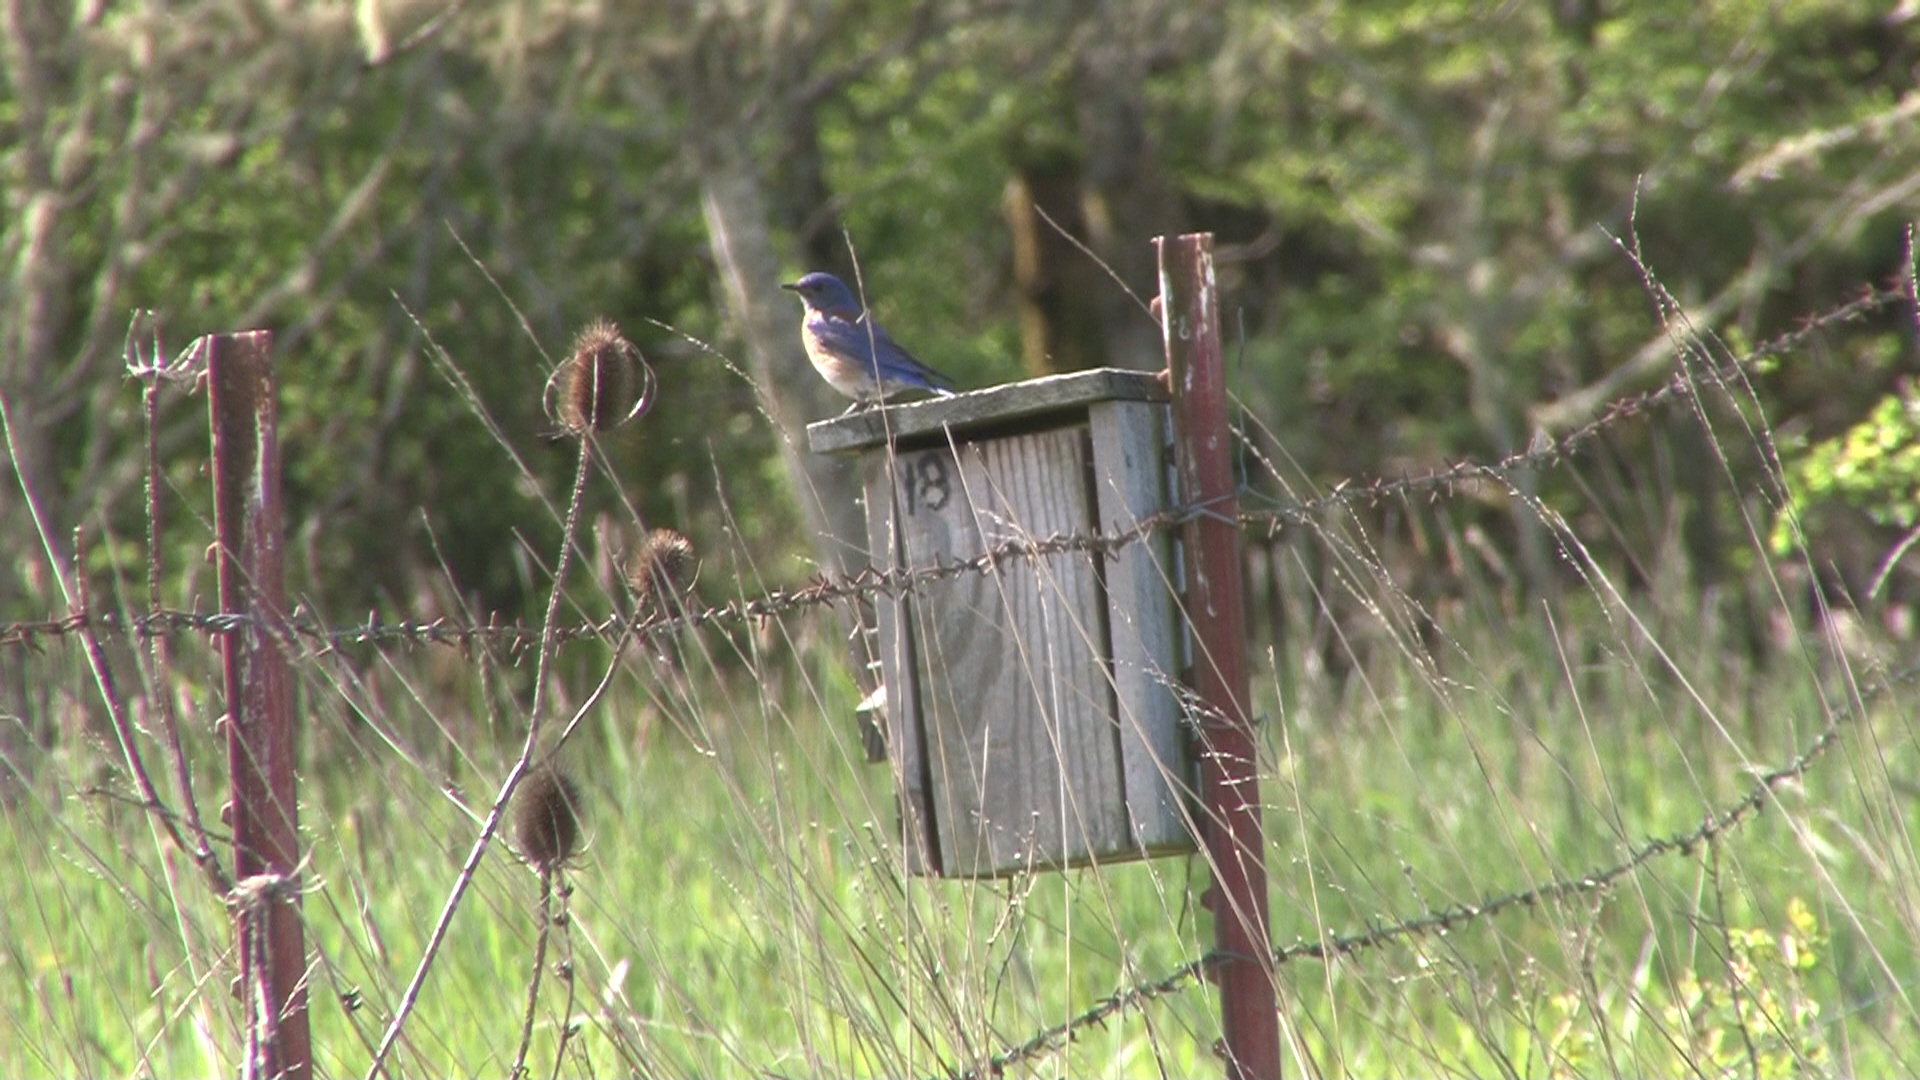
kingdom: Animalia
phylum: Chordata
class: Aves
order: Passeriformes
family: Turdidae
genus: Sialia
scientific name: Sialia mexicana
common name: Western bluebird
